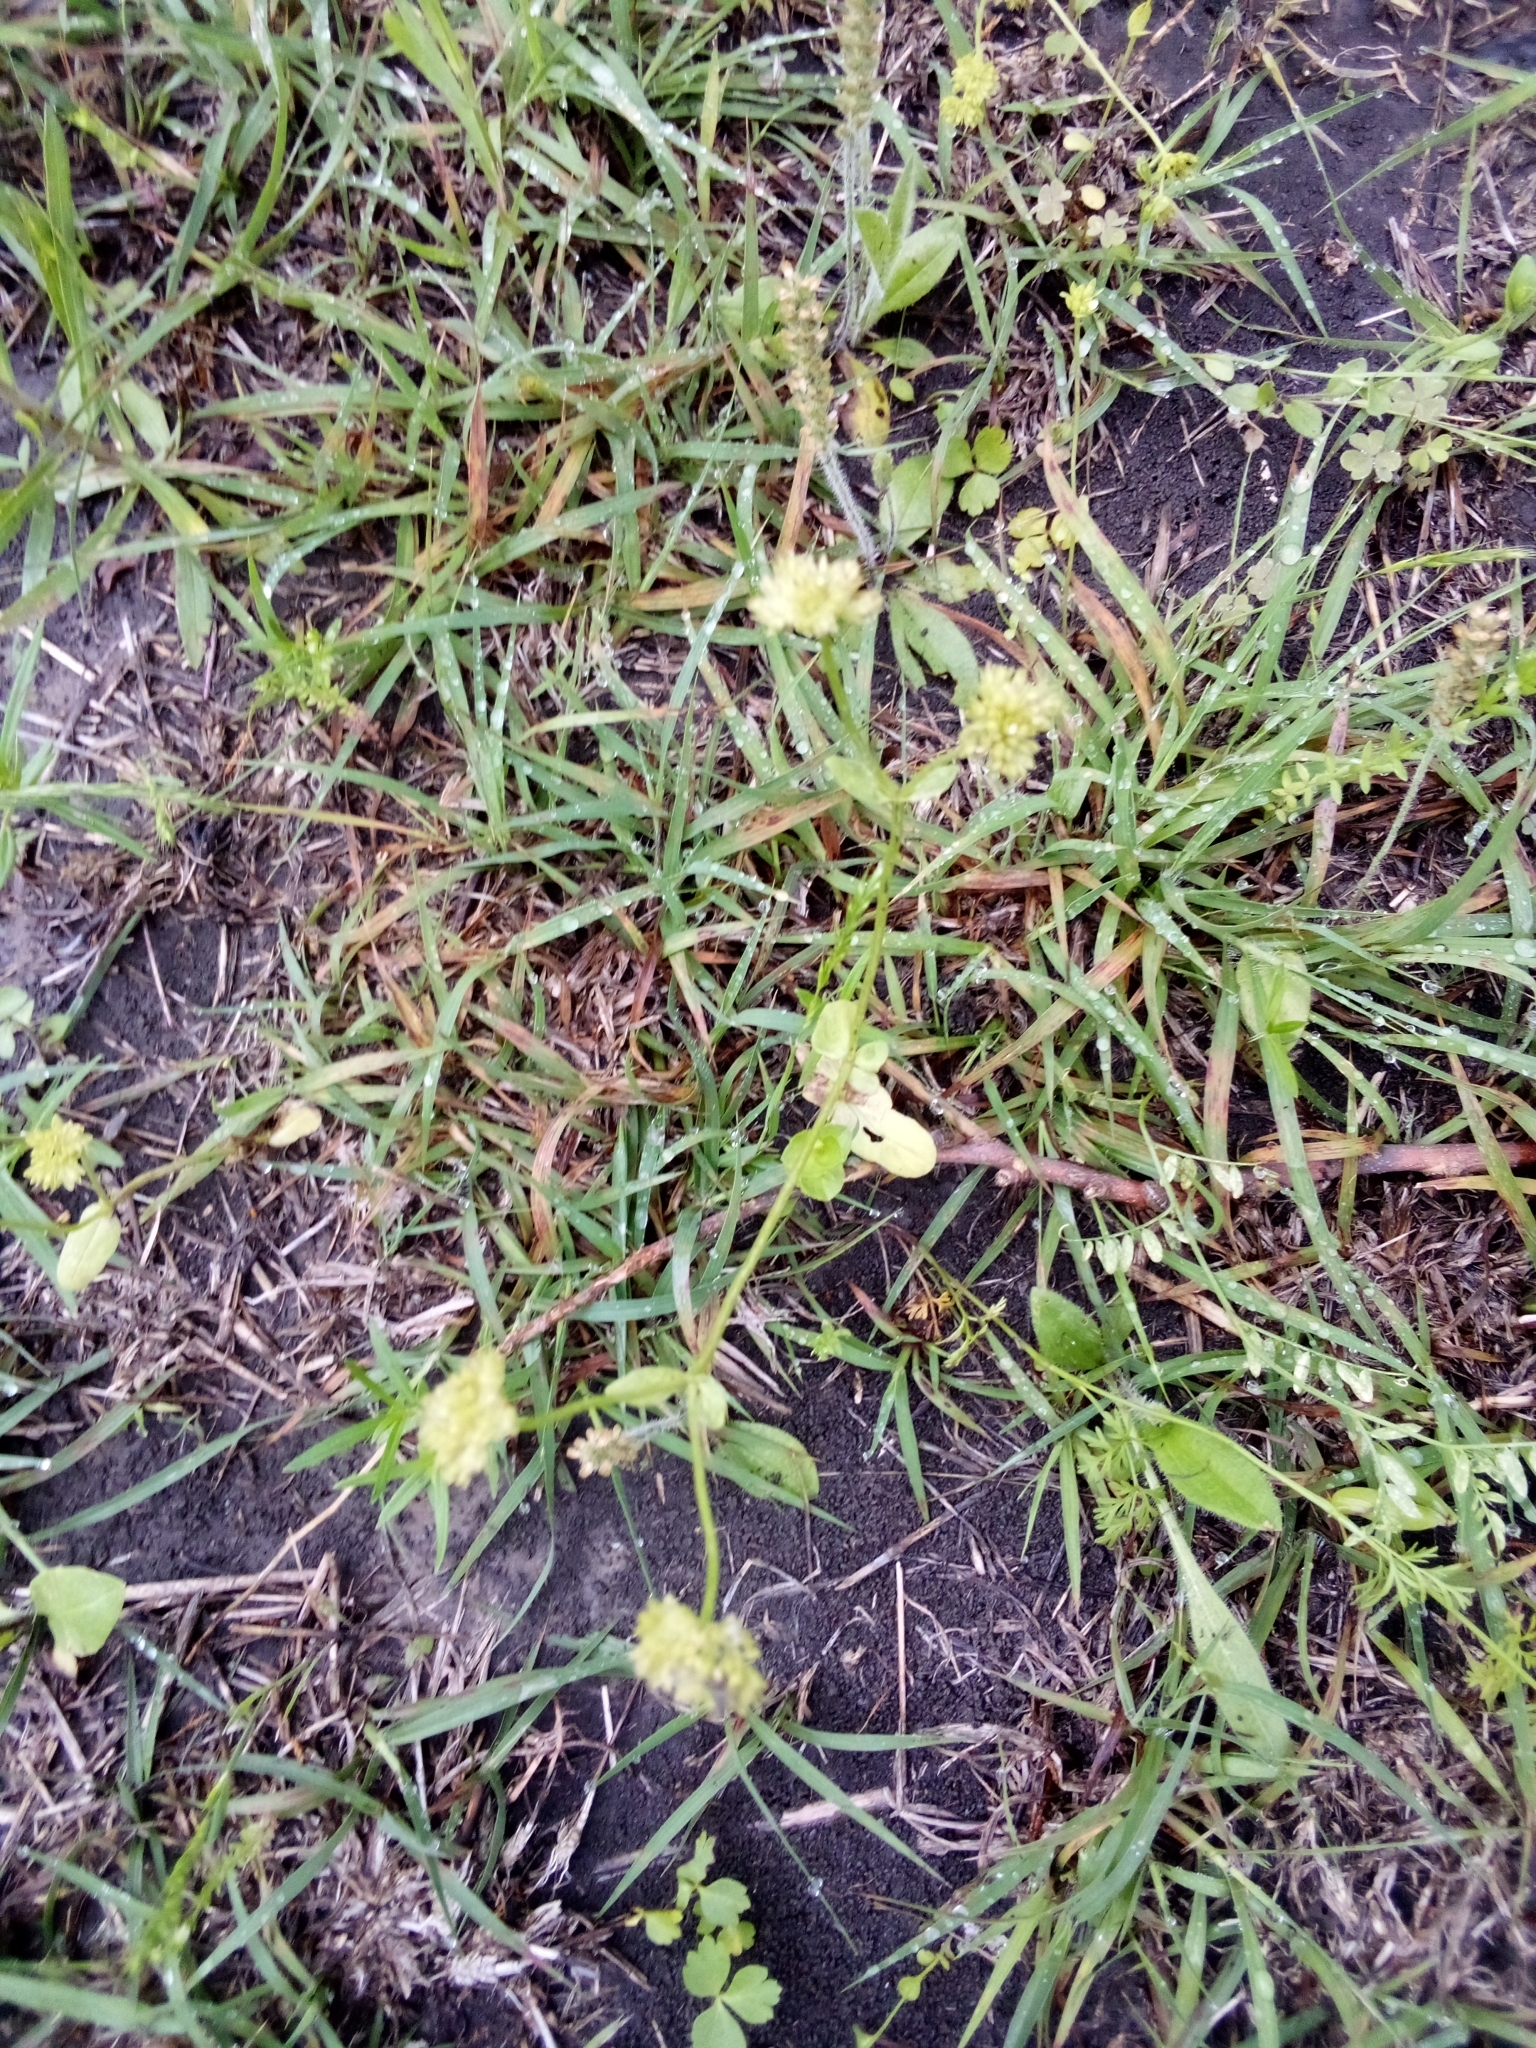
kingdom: Plantae
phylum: Tracheophyta
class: Magnoliopsida
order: Dipsacales
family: Caprifoliaceae
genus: Valerianella
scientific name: Valerianella radiata
